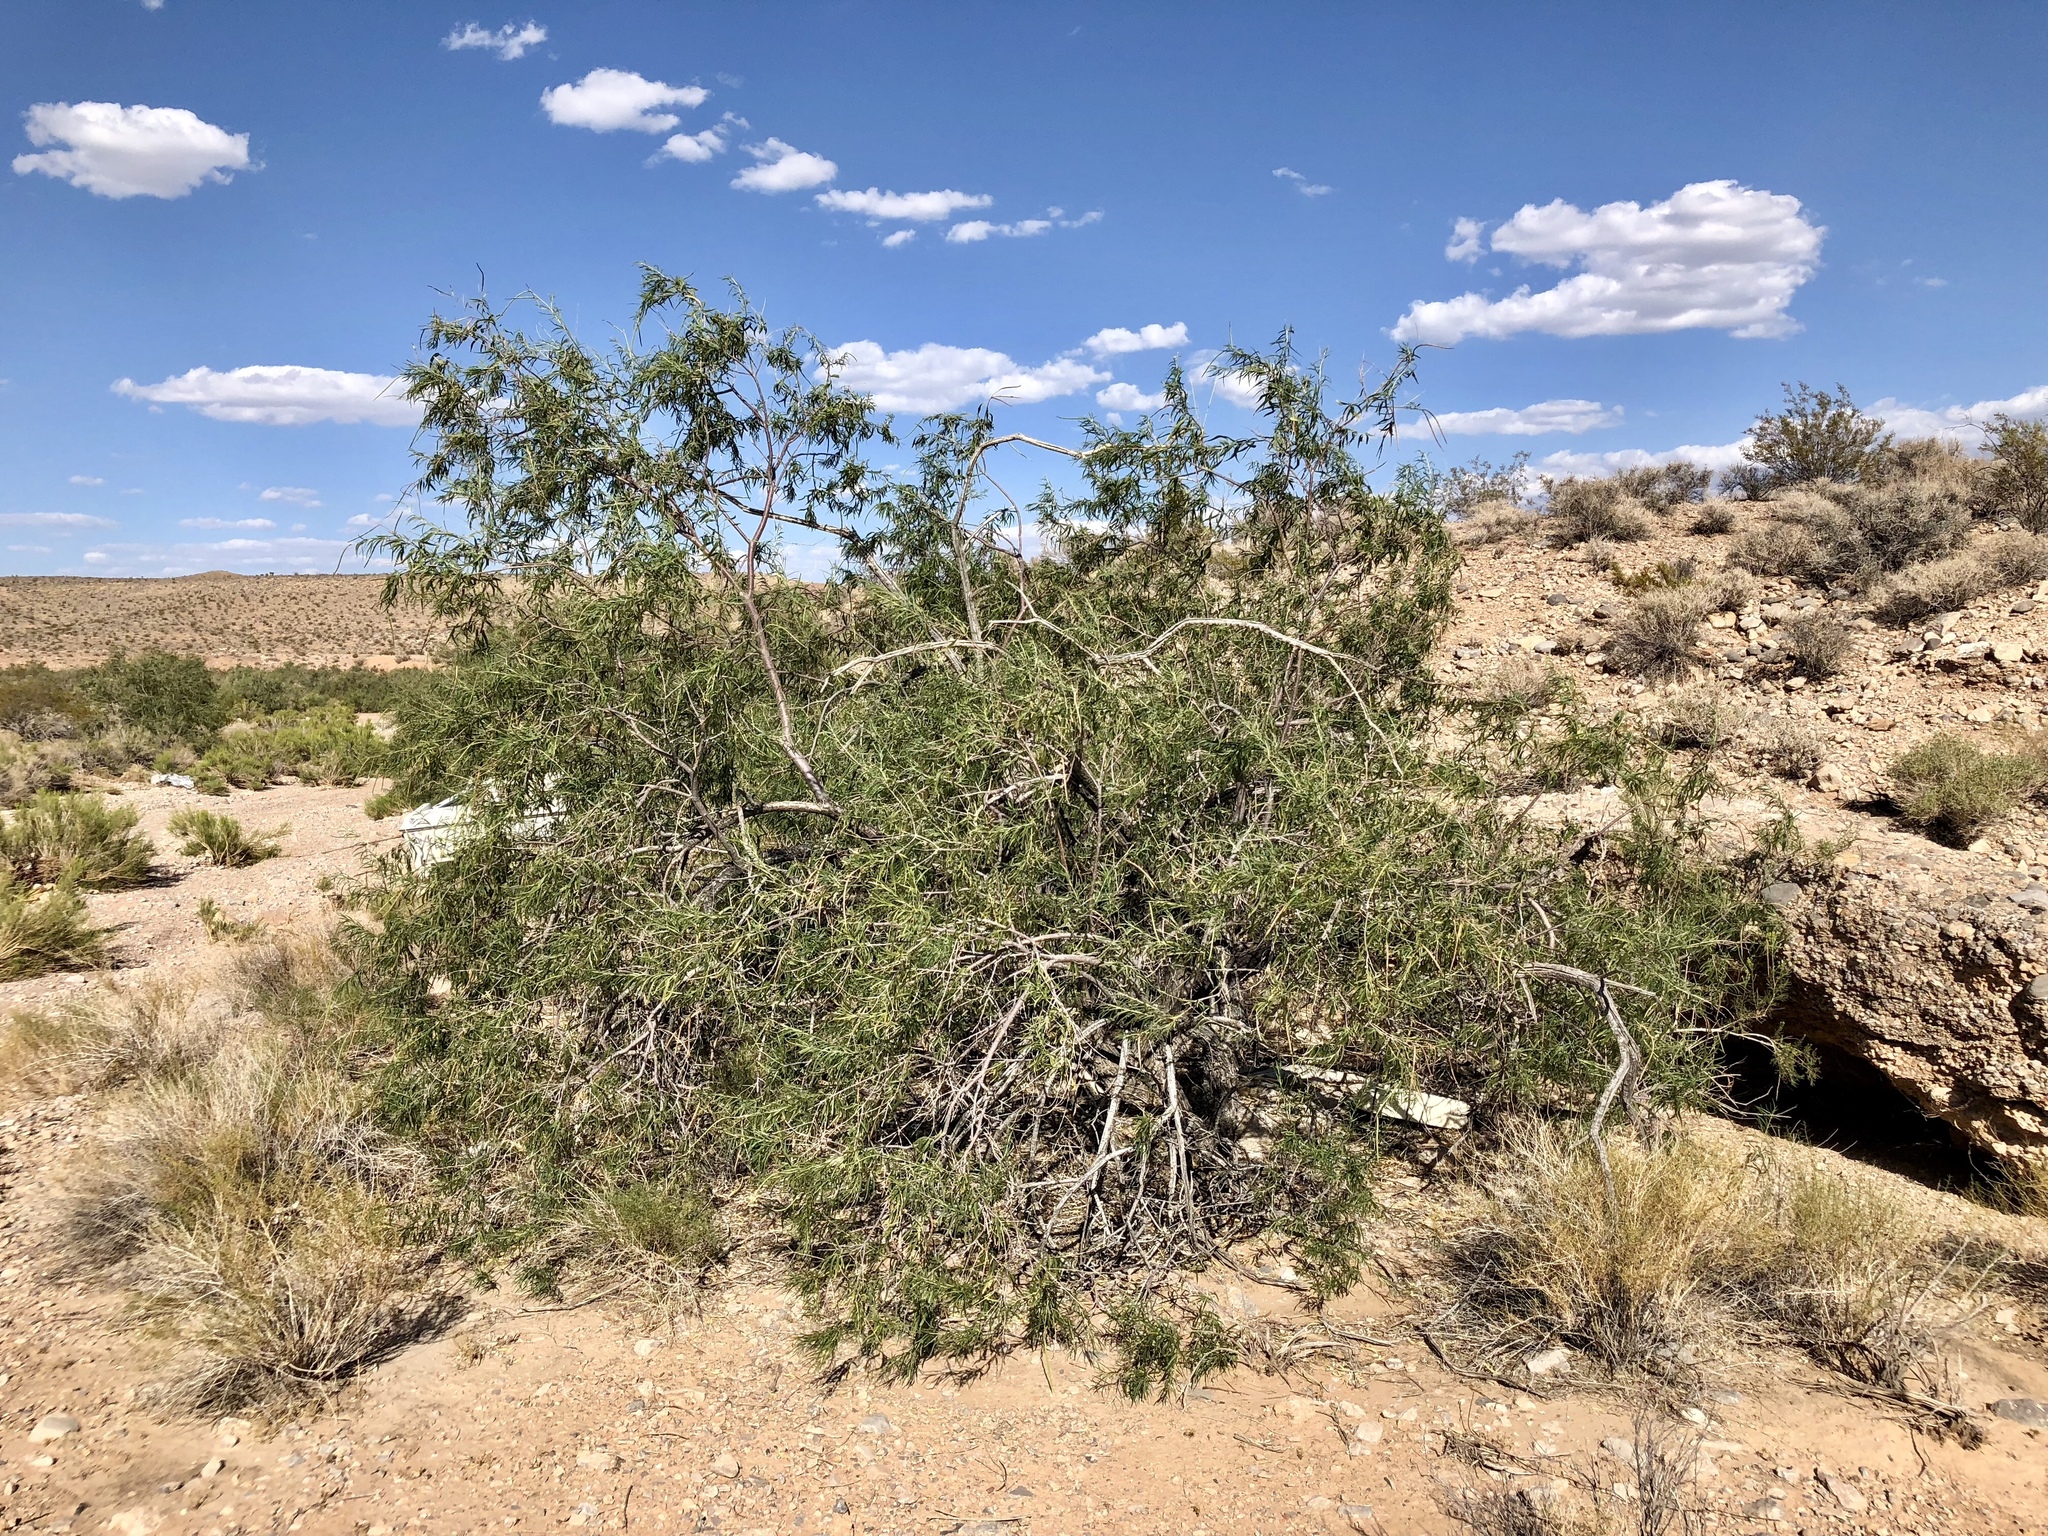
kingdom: Plantae
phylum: Tracheophyta
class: Magnoliopsida
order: Lamiales
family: Bignoniaceae
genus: Chilopsis
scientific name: Chilopsis linearis
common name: Desert-willow
